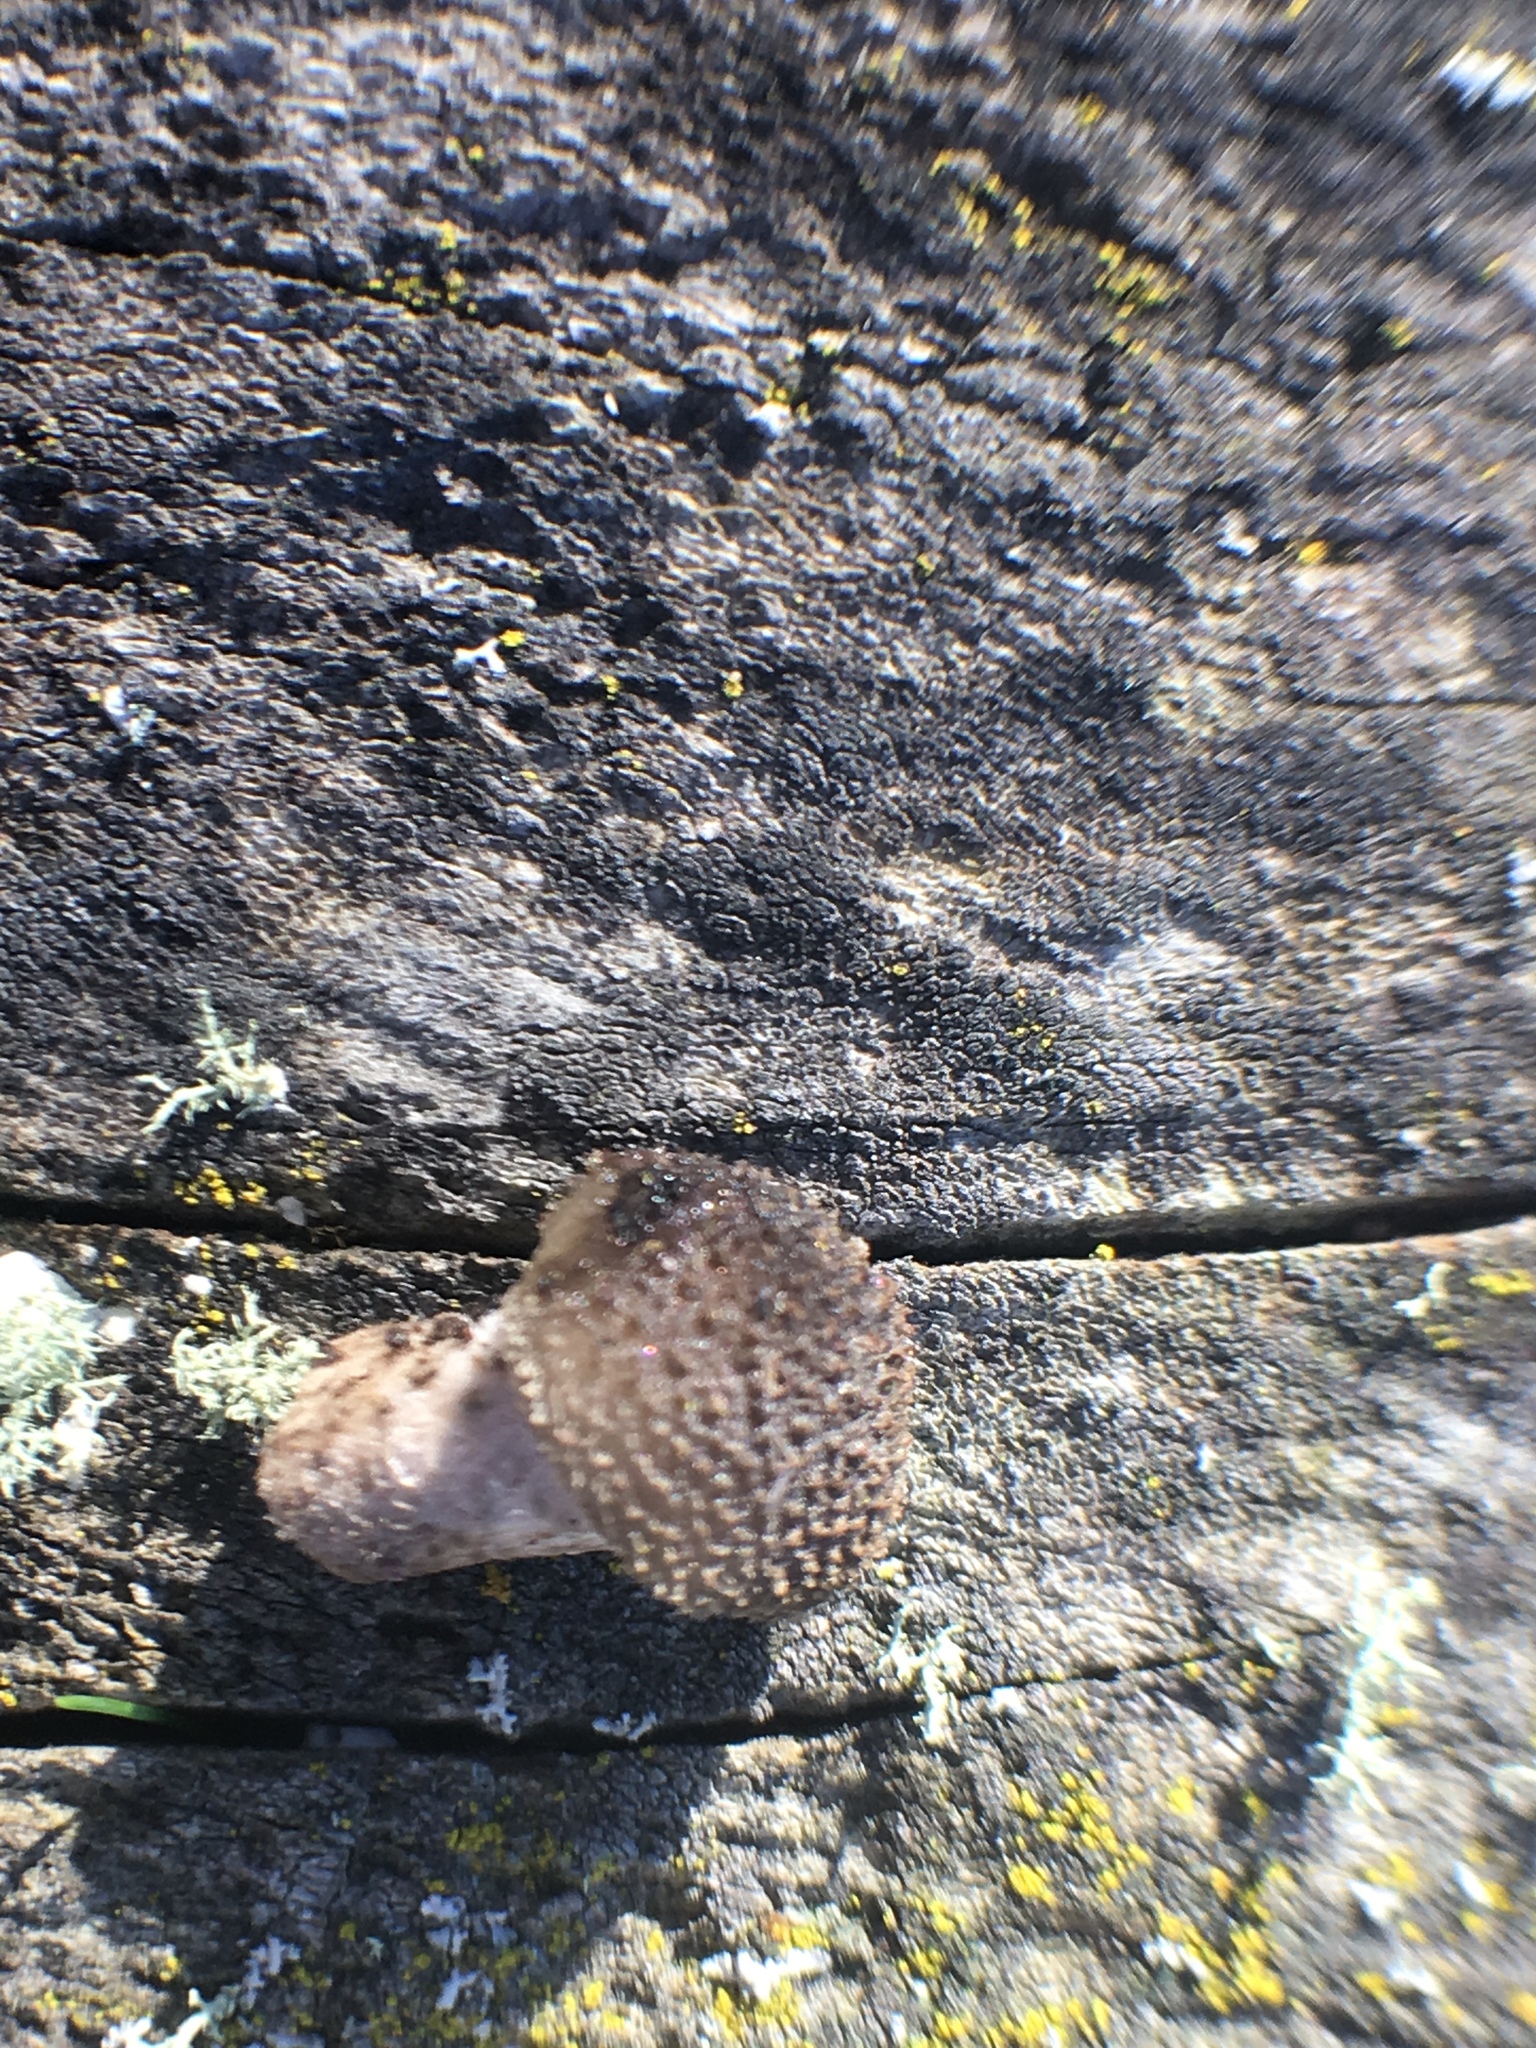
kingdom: Fungi
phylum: Basidiomycota
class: Agaricomycetes
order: Agaricales
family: Physalacriaceae
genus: Armillaria
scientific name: Armillaria novae-zelandiae
